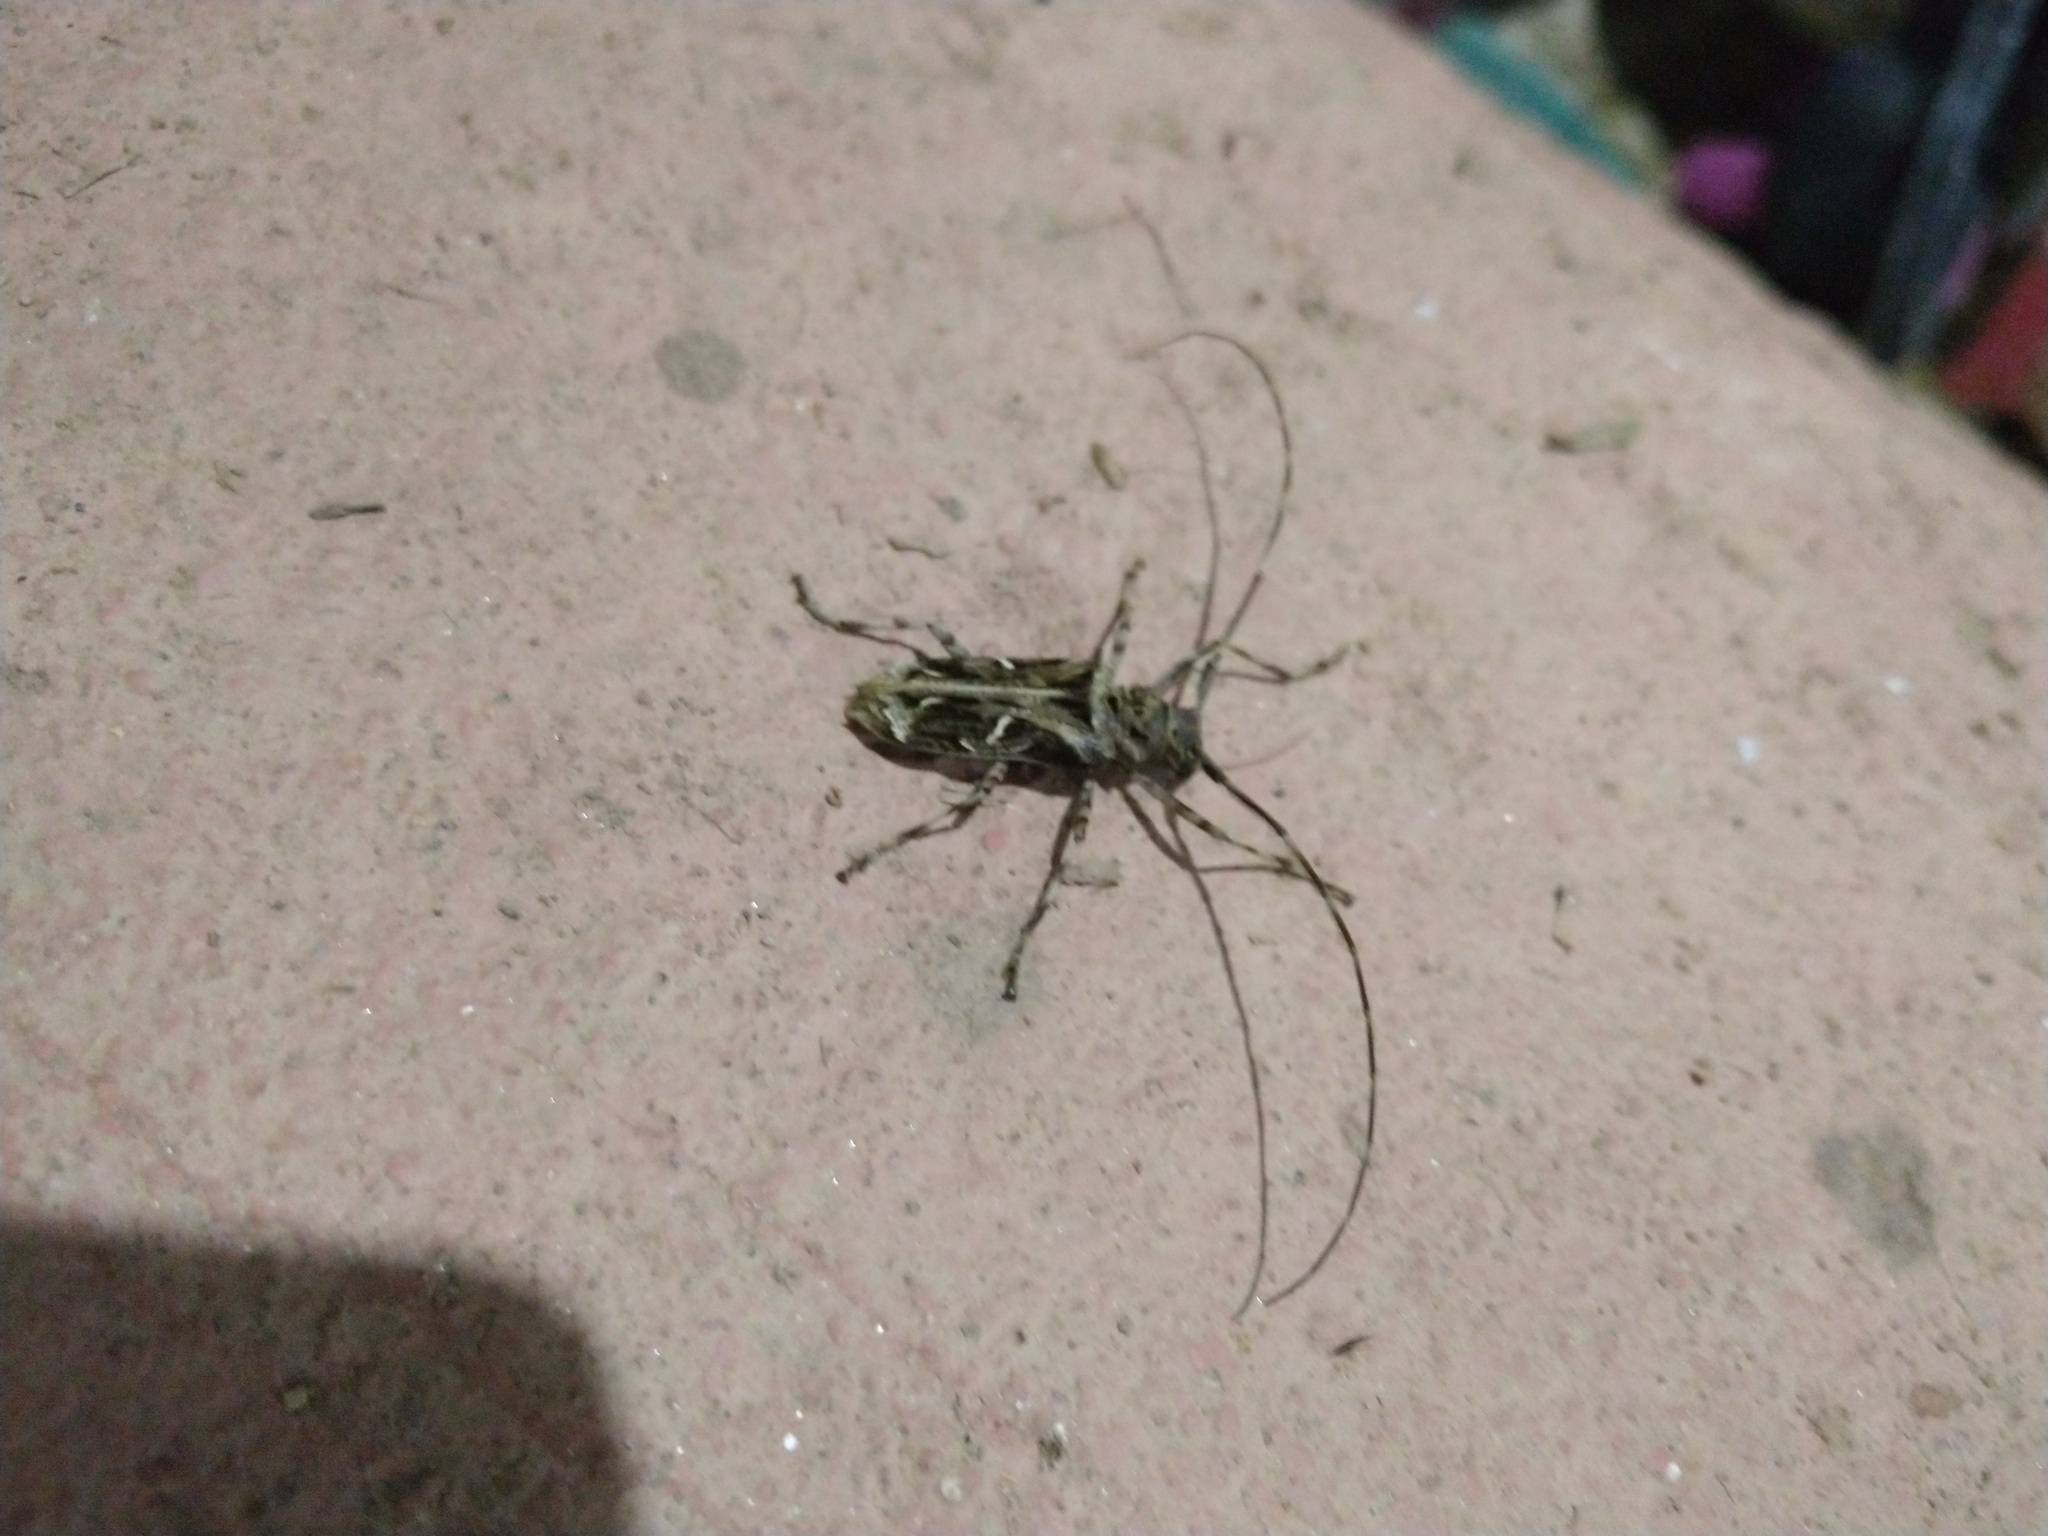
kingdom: Animalia
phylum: Arthropoda
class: Insecta
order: Coleoptera
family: Cerambycidae
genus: Macropophora
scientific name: Macropophora accentifer
